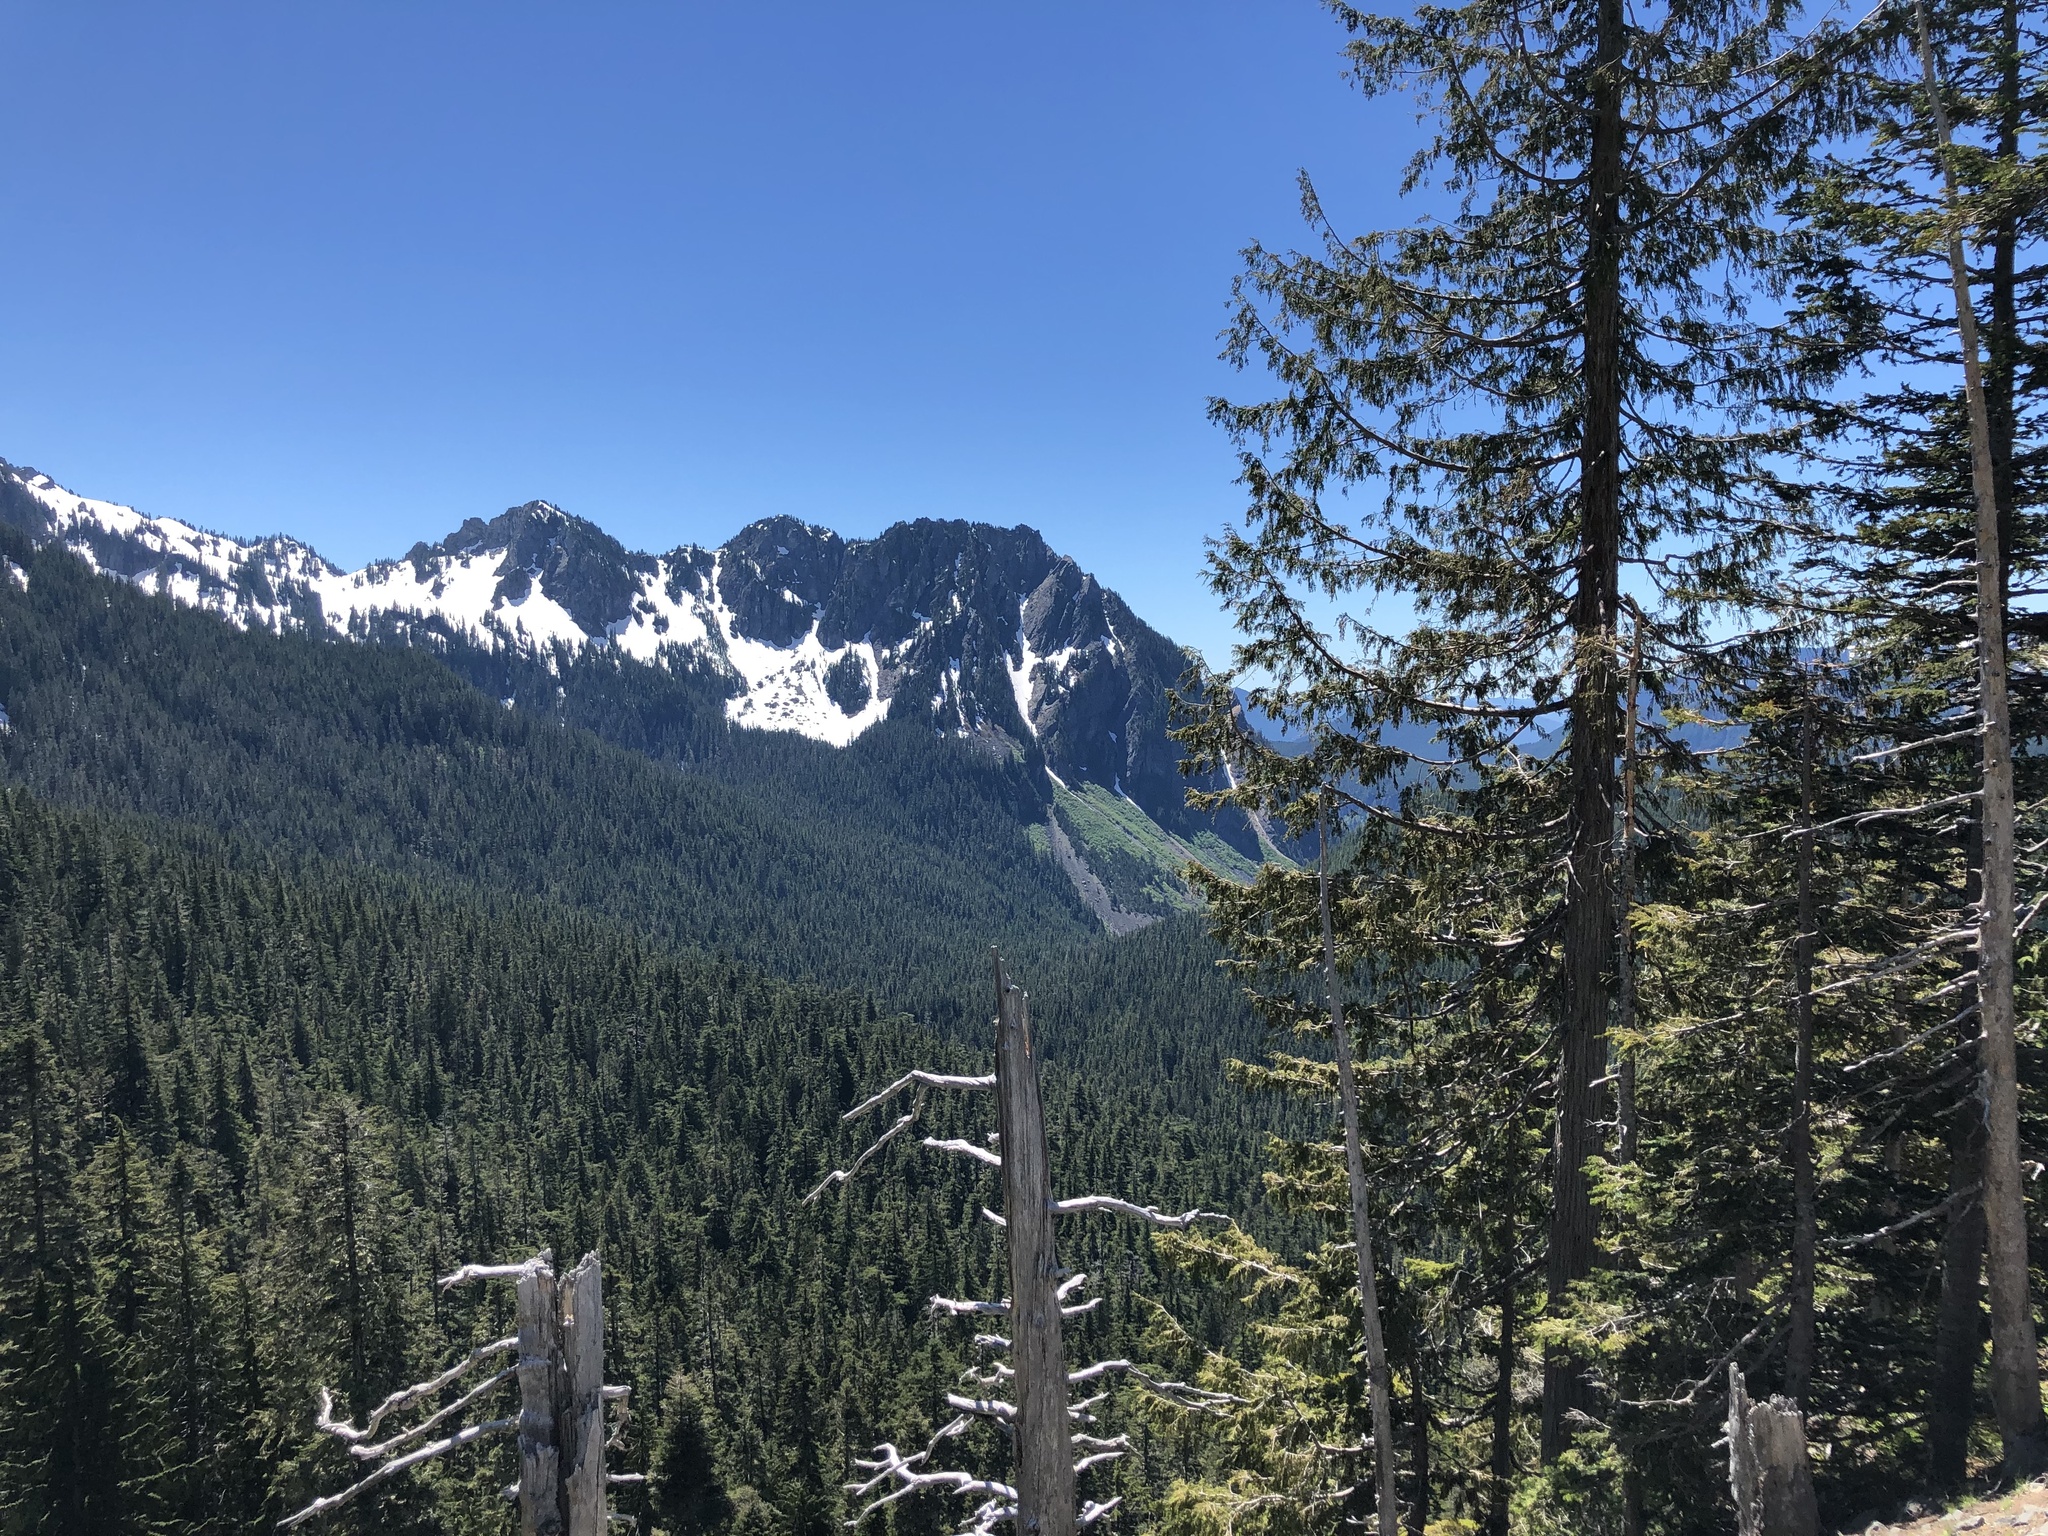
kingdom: Plantae
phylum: Tracheophyta
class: Pinopsida
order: Pinales
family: Cupressaceae
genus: Thuja
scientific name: Thuja plicata
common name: Western red-cedar
